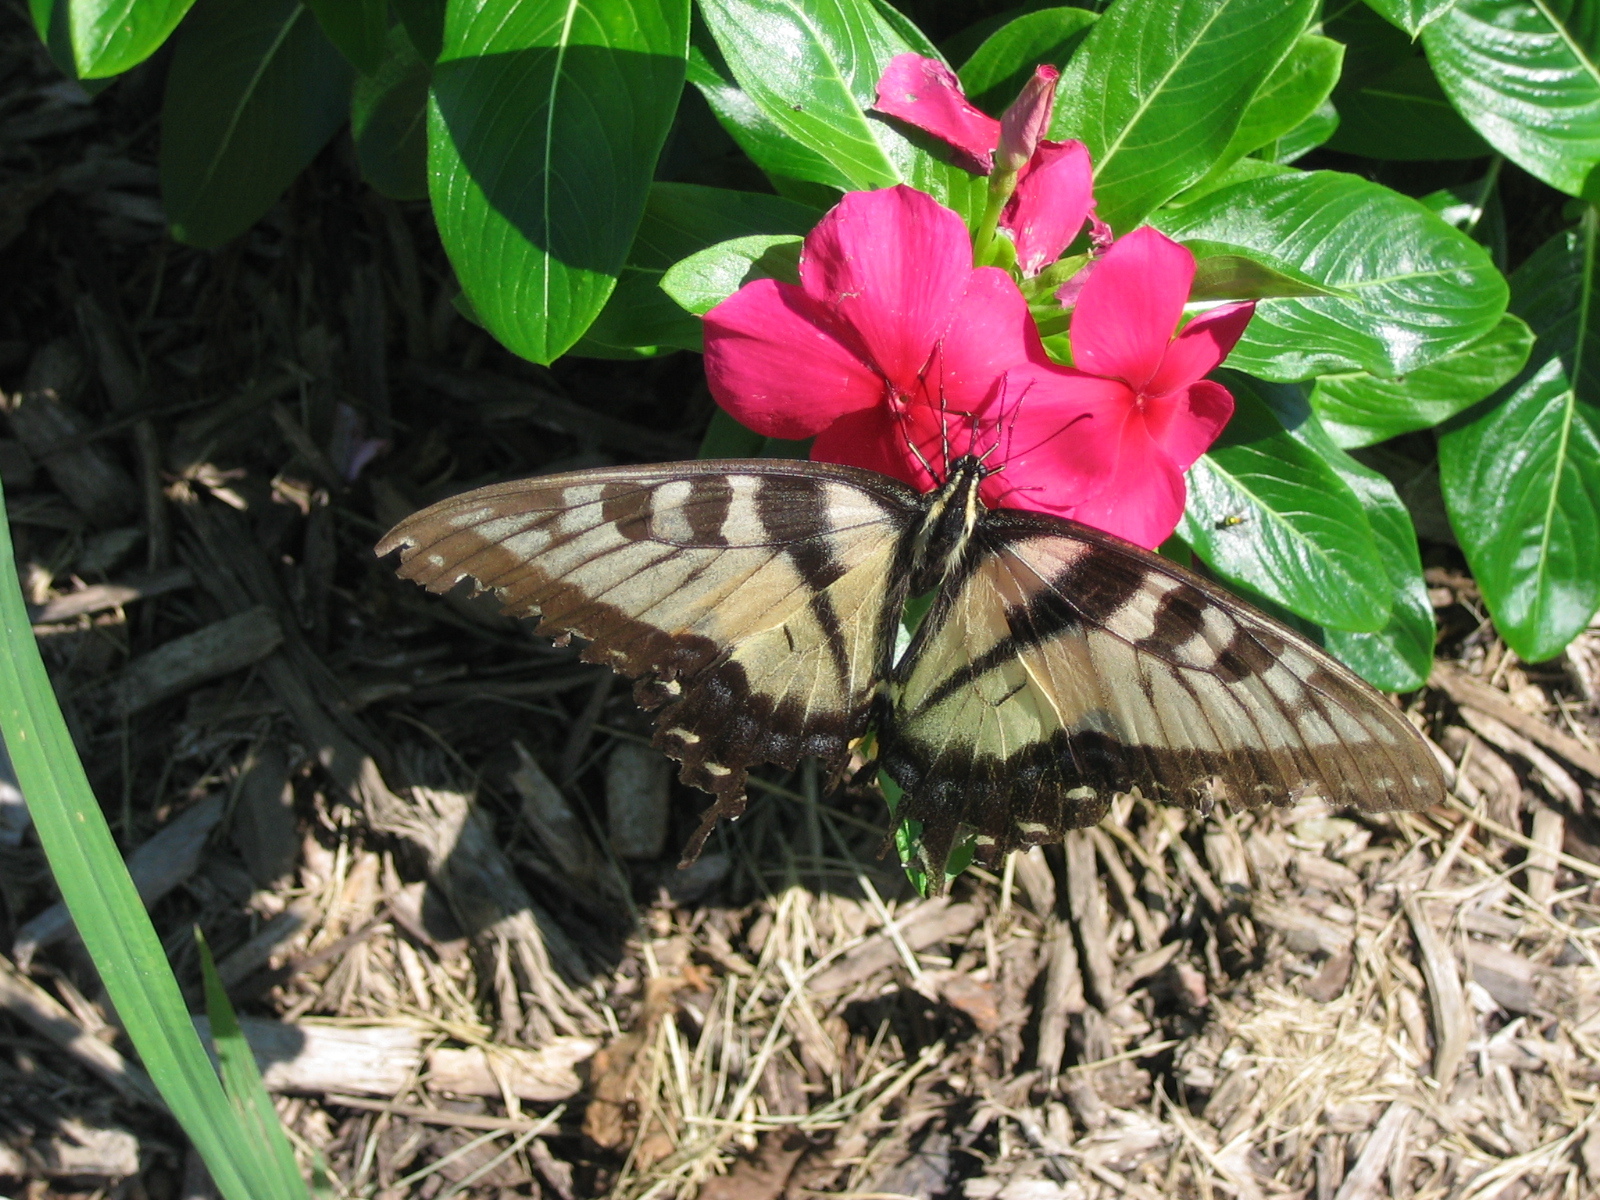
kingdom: Animalia
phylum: Arthropoda
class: Insecta
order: Lepidoptera
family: Papilionidae
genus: Papilio
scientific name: Papilio glaucus
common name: Tiger swallowtail
